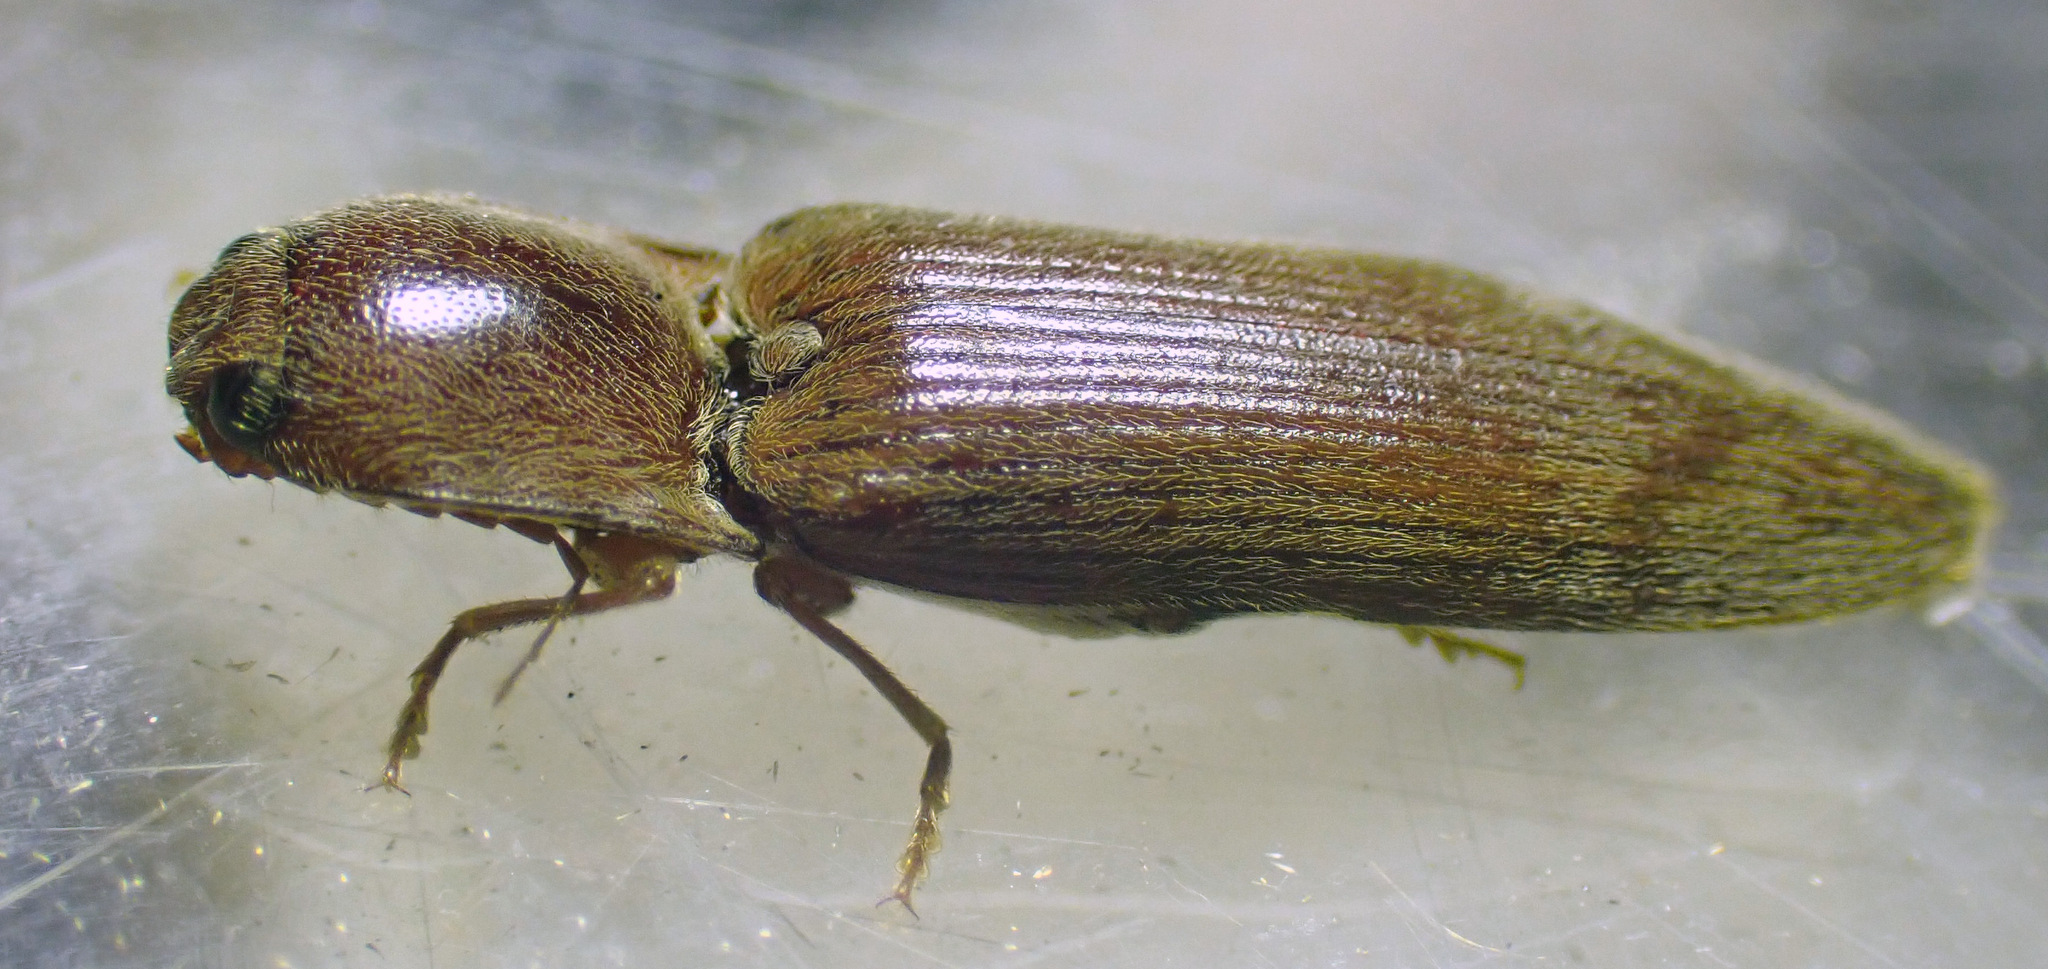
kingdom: Animalia
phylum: Arthropoda
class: Insecta
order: Coleoptera
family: Elateridae
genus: Stenagostus
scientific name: Stenagostus rhombeus
